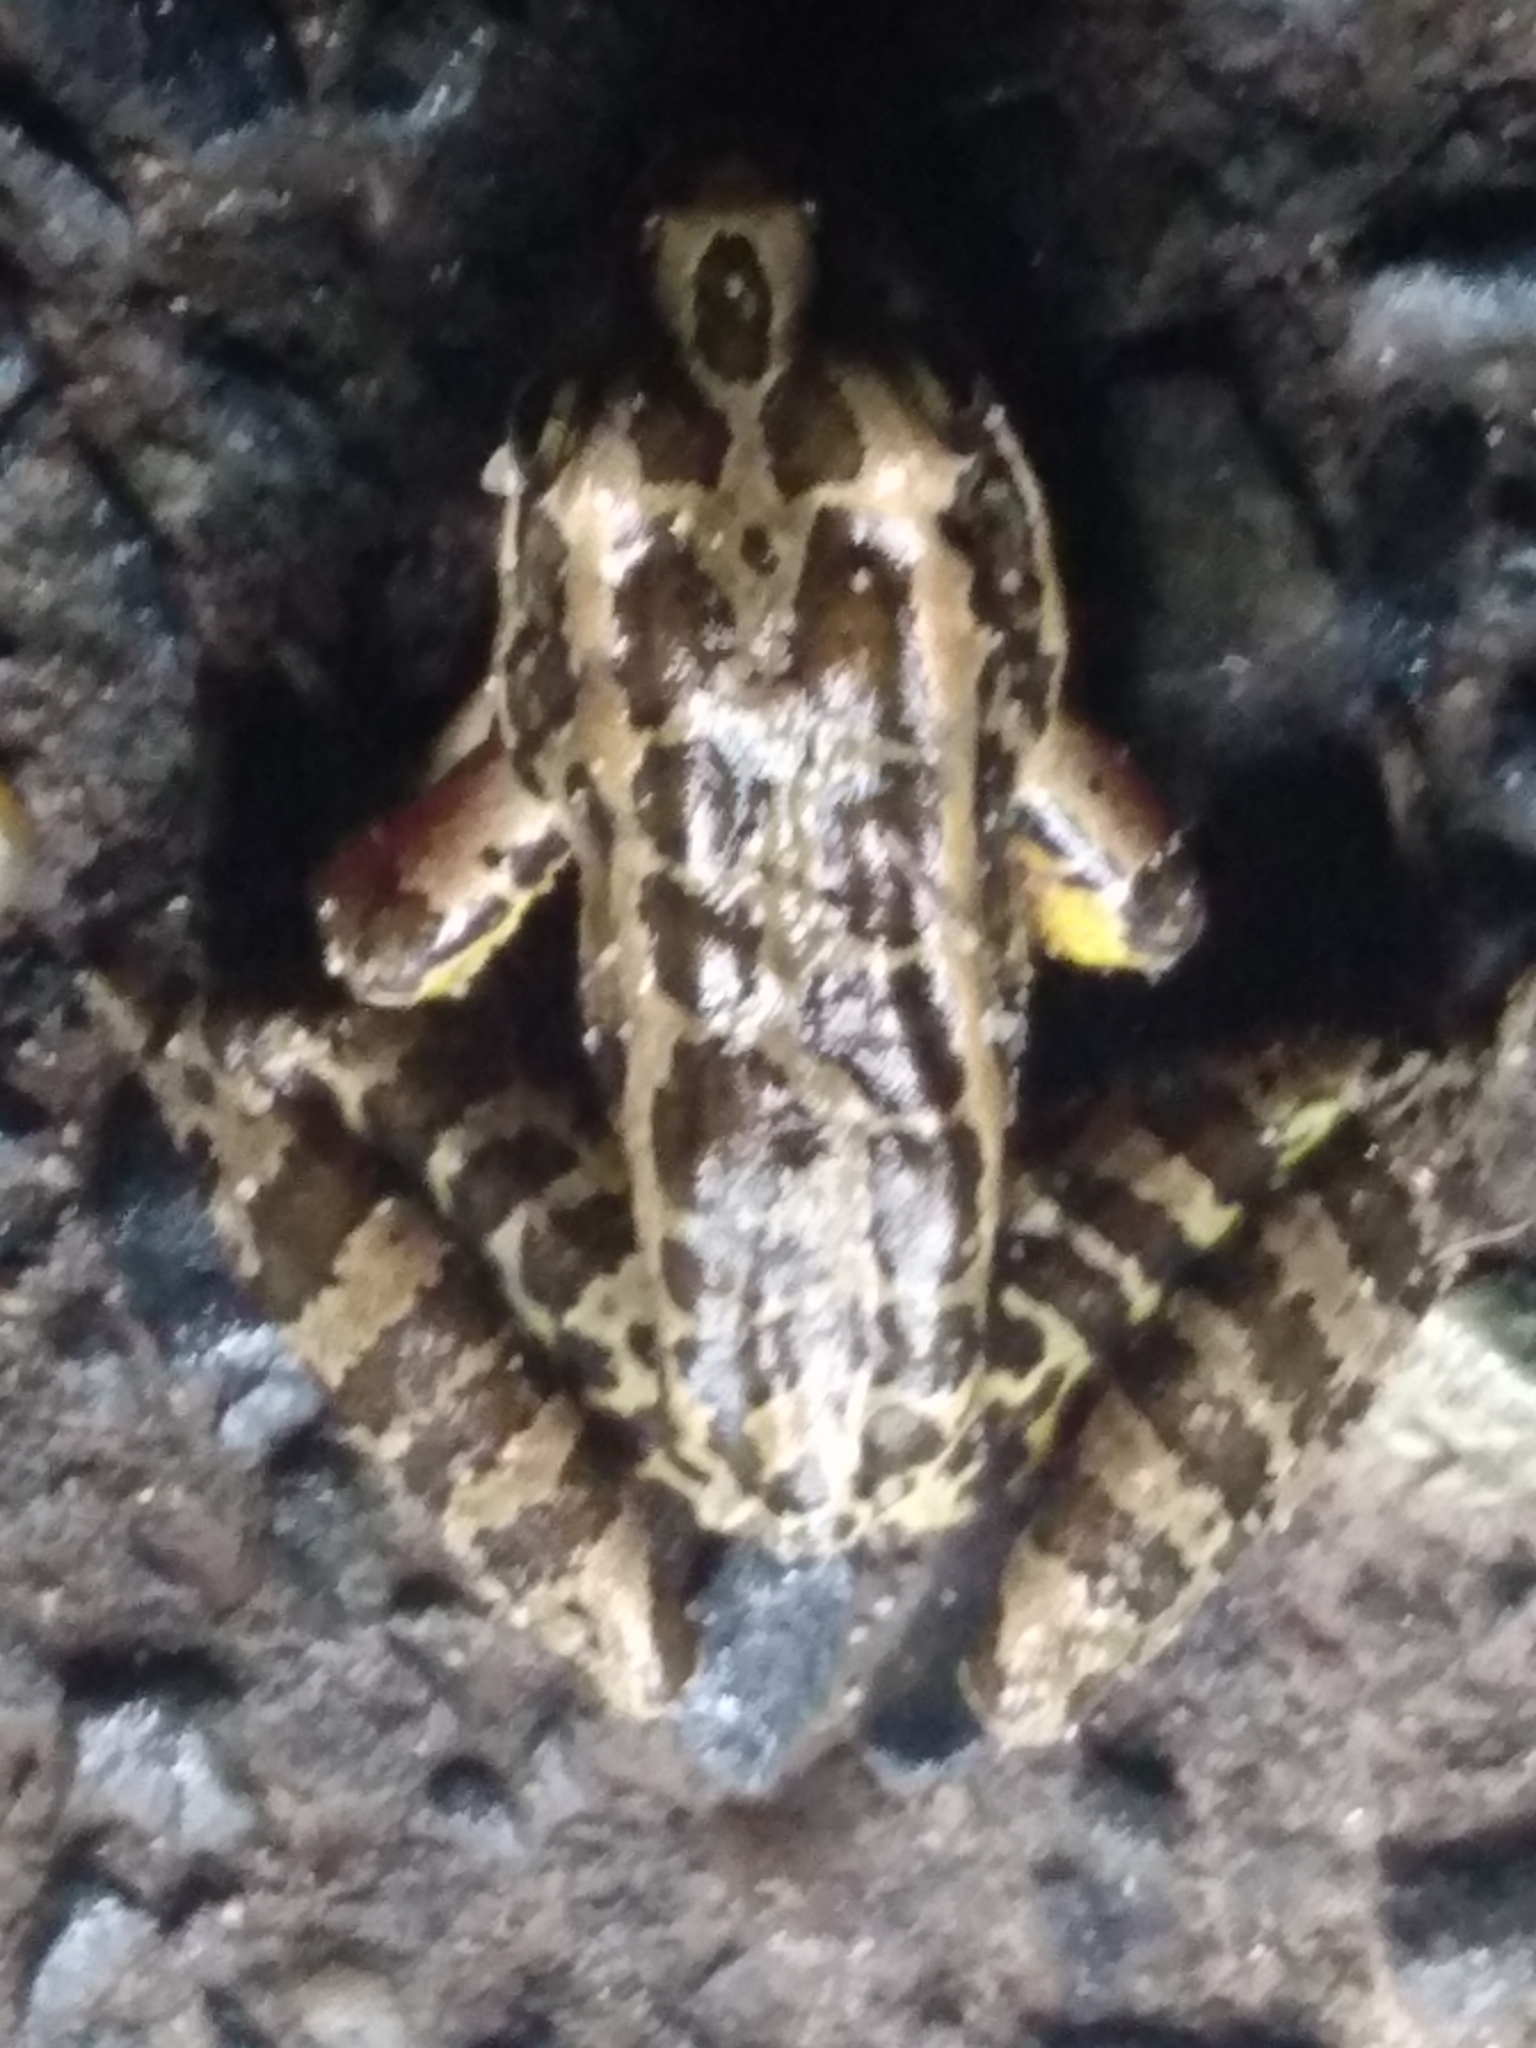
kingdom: Animalia
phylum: Chordata
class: Amphibia
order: Anura
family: Ranidae
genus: Lithobates
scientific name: Lithobates palustris
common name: Pickerel frog
